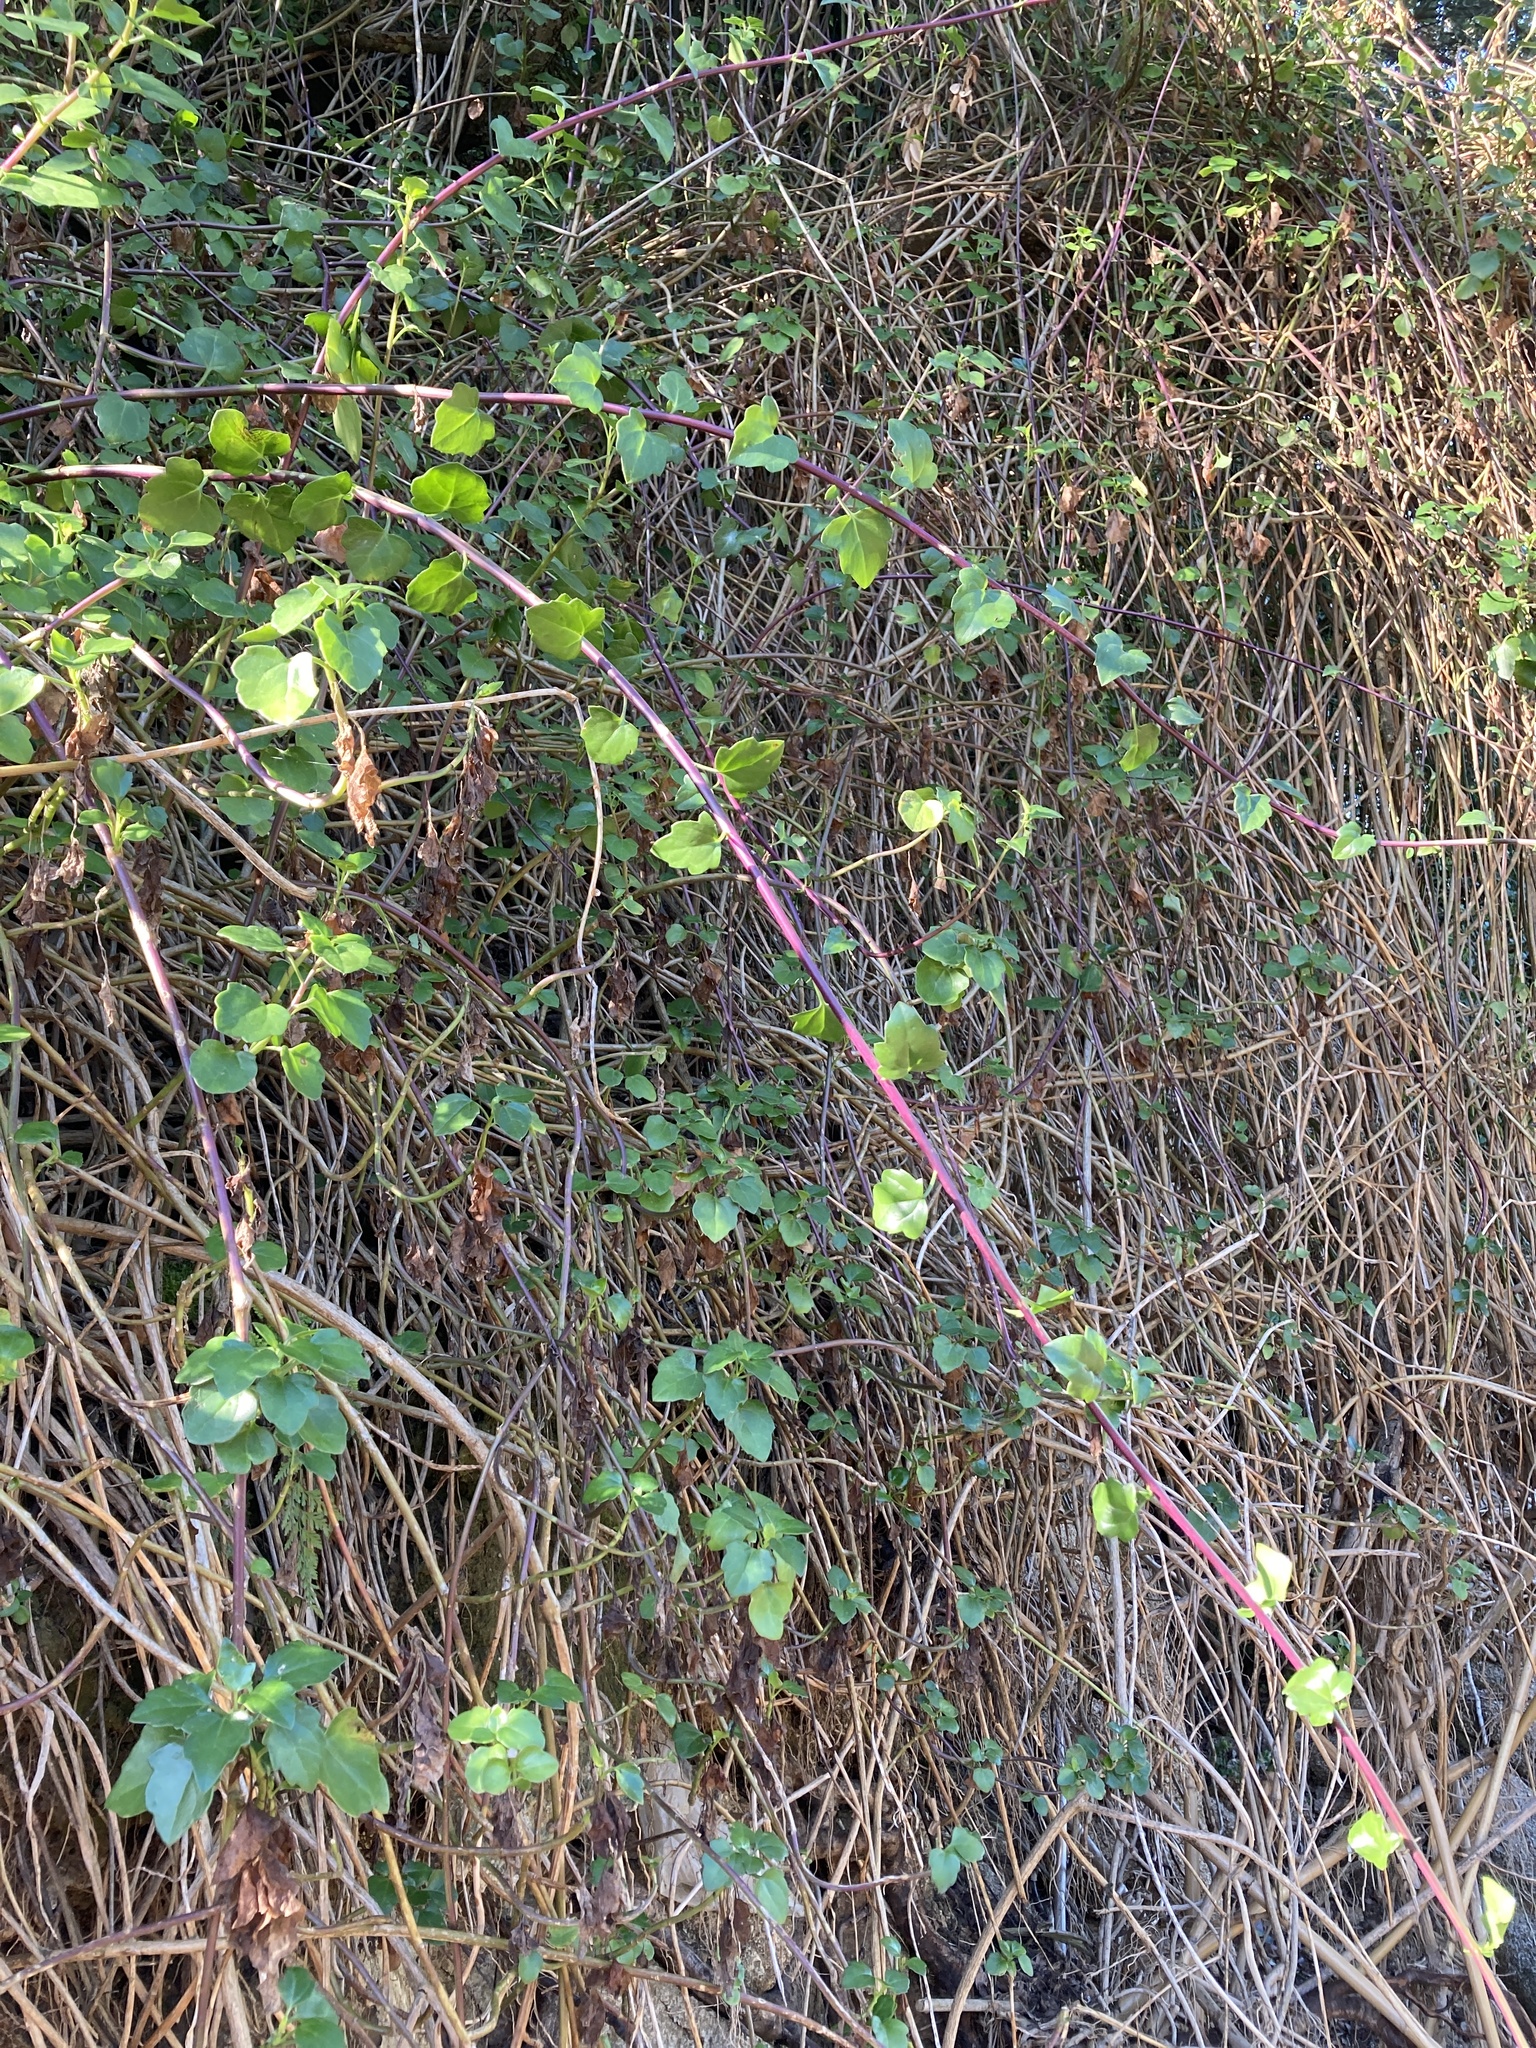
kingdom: Plantae
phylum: Tracheophyta
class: Magnoliopsida
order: Asterales
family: Asteraceae
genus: Senecio
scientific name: Senecio angulatus
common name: Climbing groundsel
